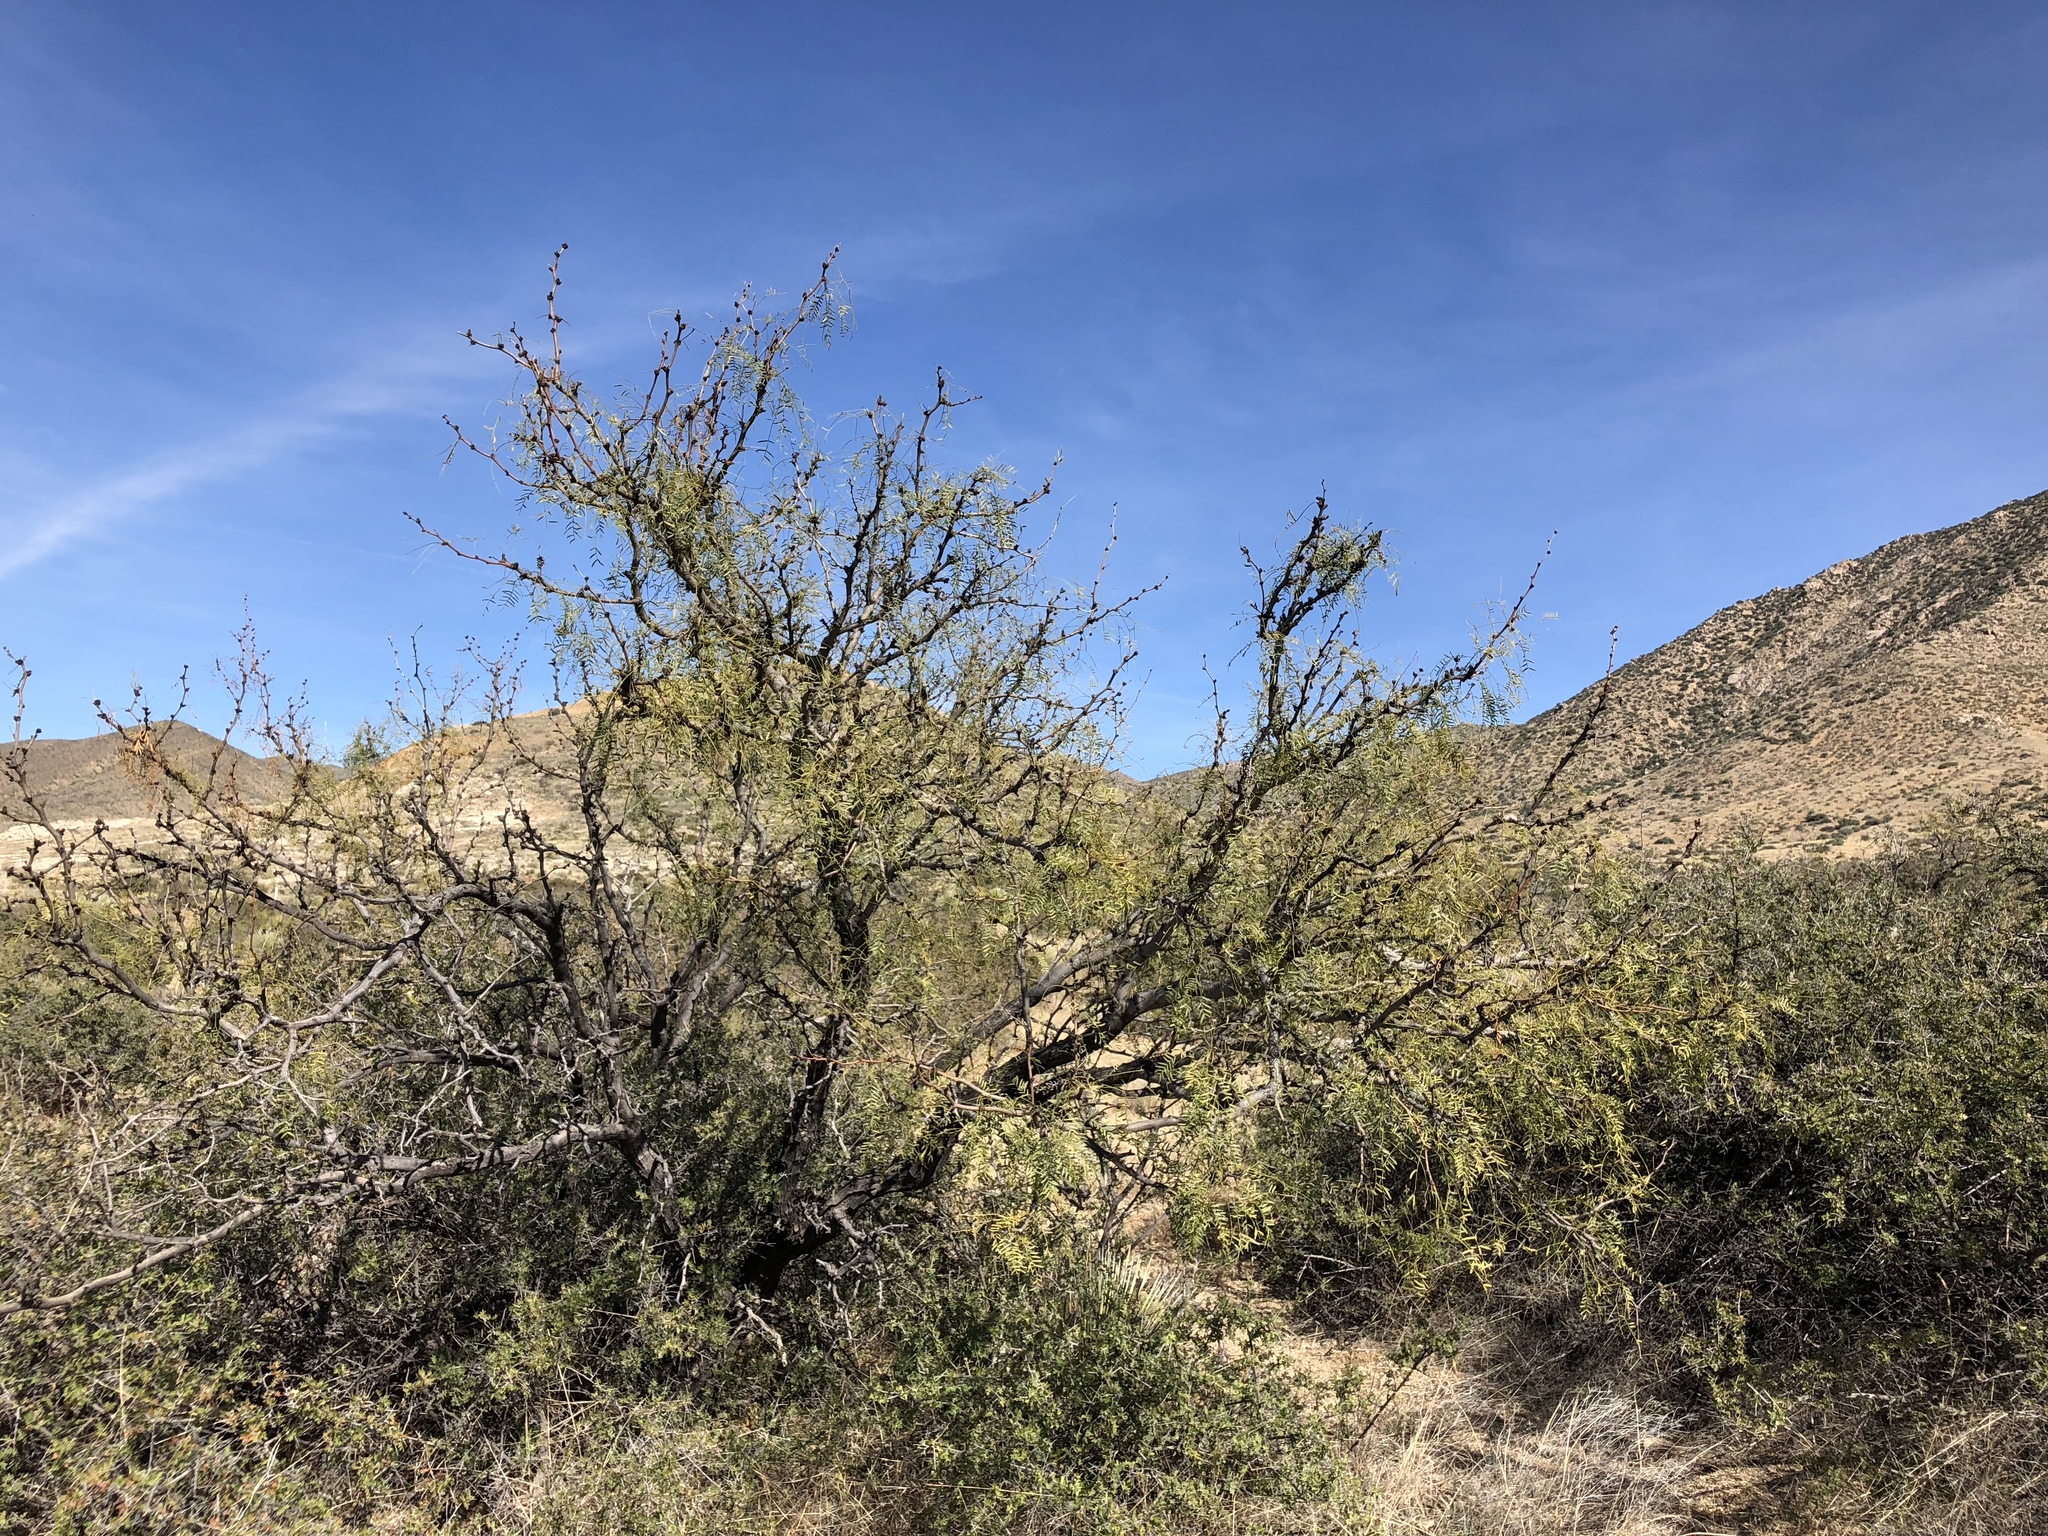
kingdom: Plantae
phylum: Tracheophyta
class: Magnoliopsida
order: Fabales
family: Fabaceae
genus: Prosopis
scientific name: Prosopis glandulosa
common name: Honey mesquite
